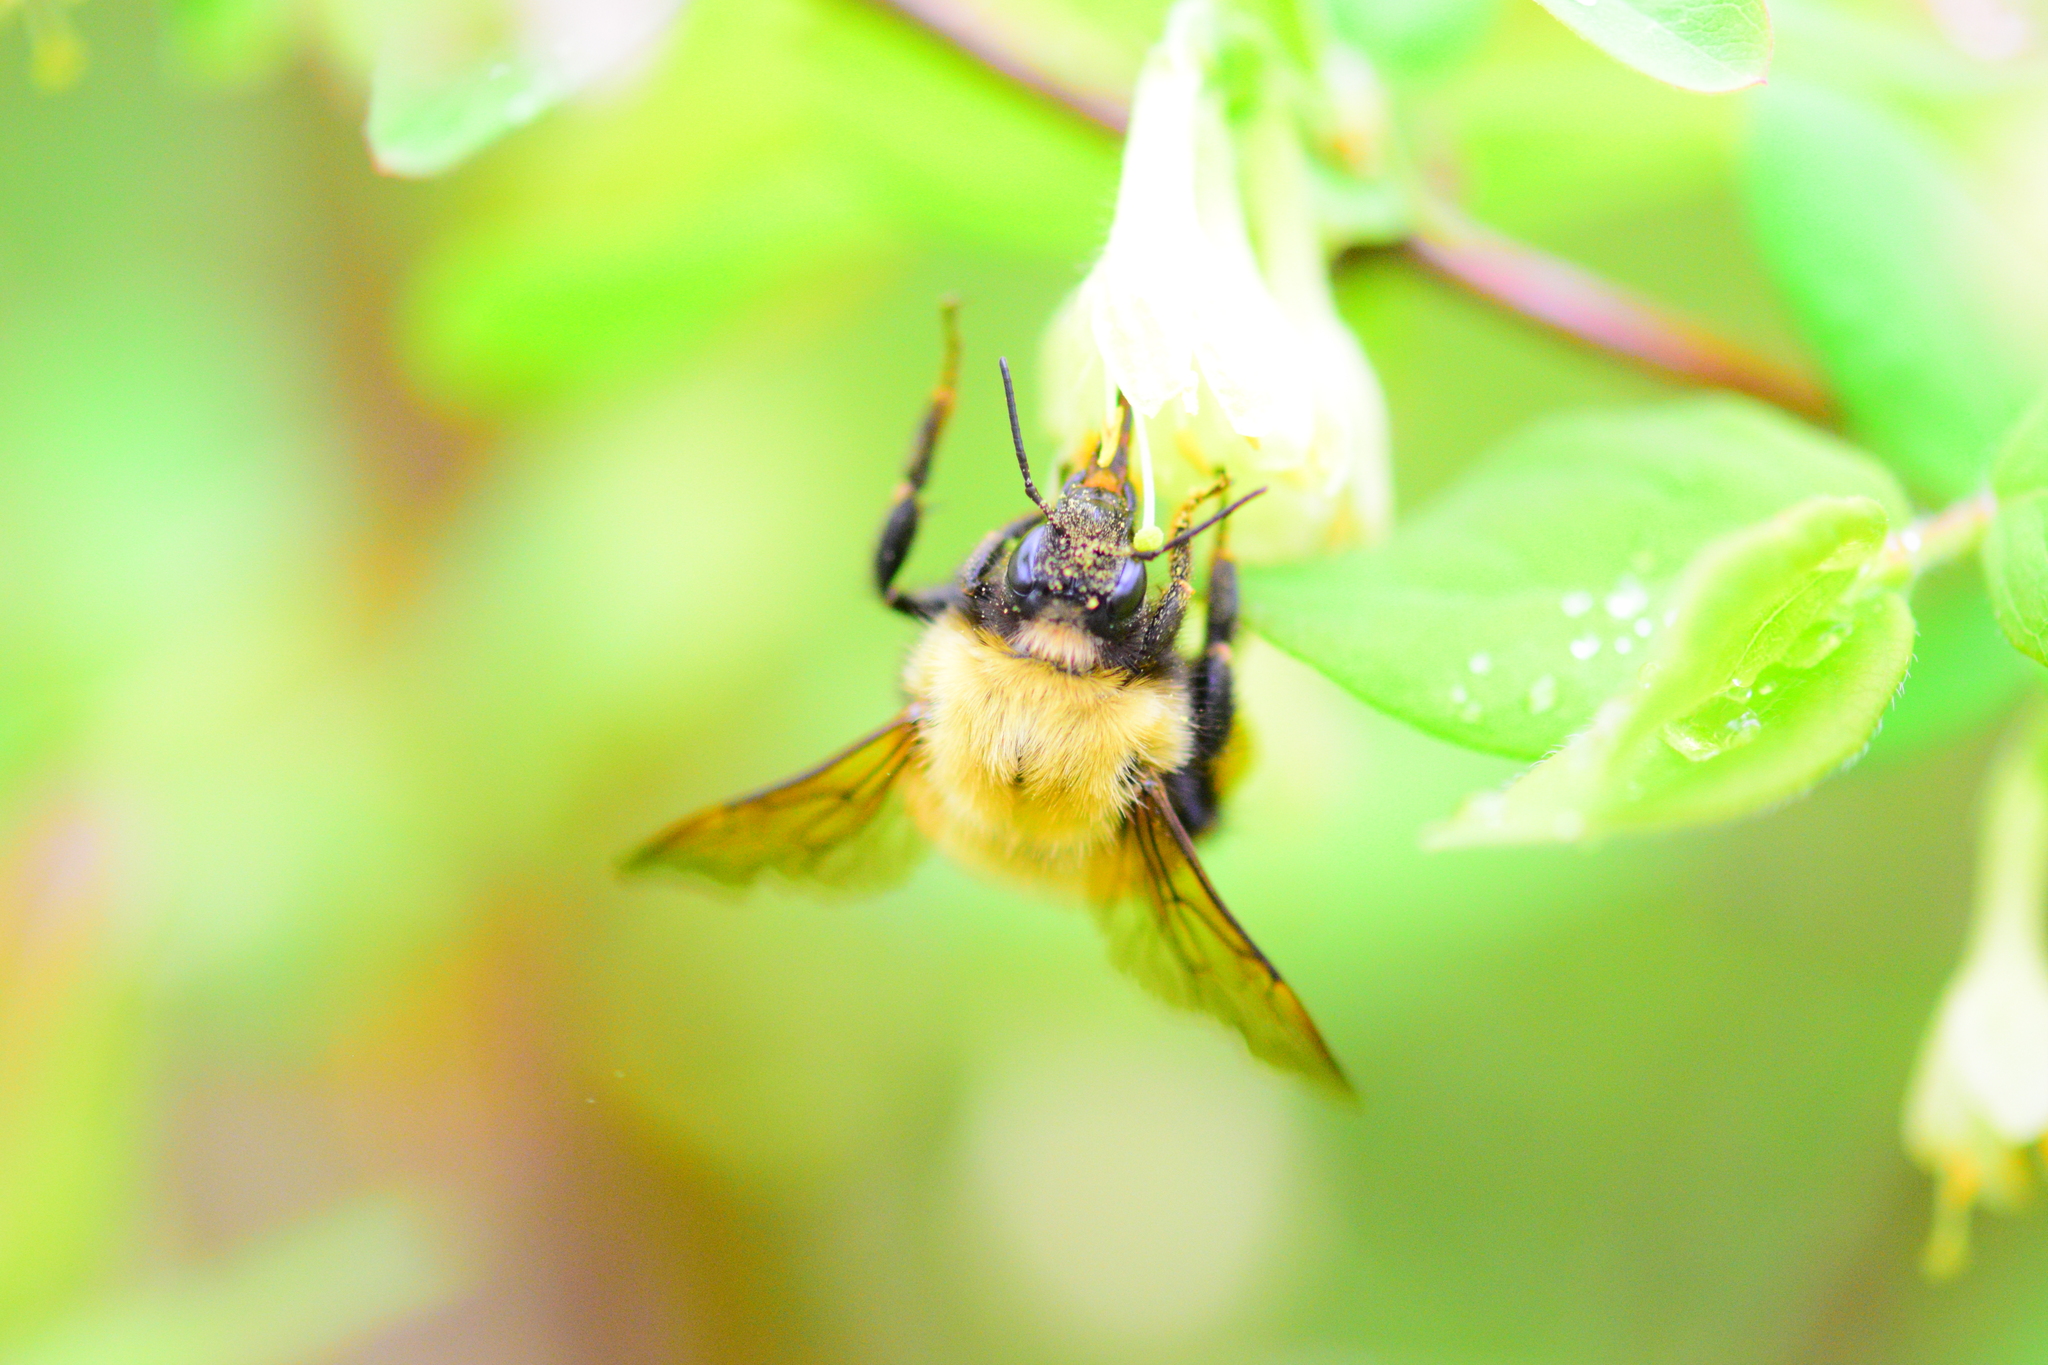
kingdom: Animalia
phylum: Arthropoda
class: Insecta
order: Hymenoptera
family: Apidae
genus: Bombus
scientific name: Bombus perplexus
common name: Confusing bumble bee
